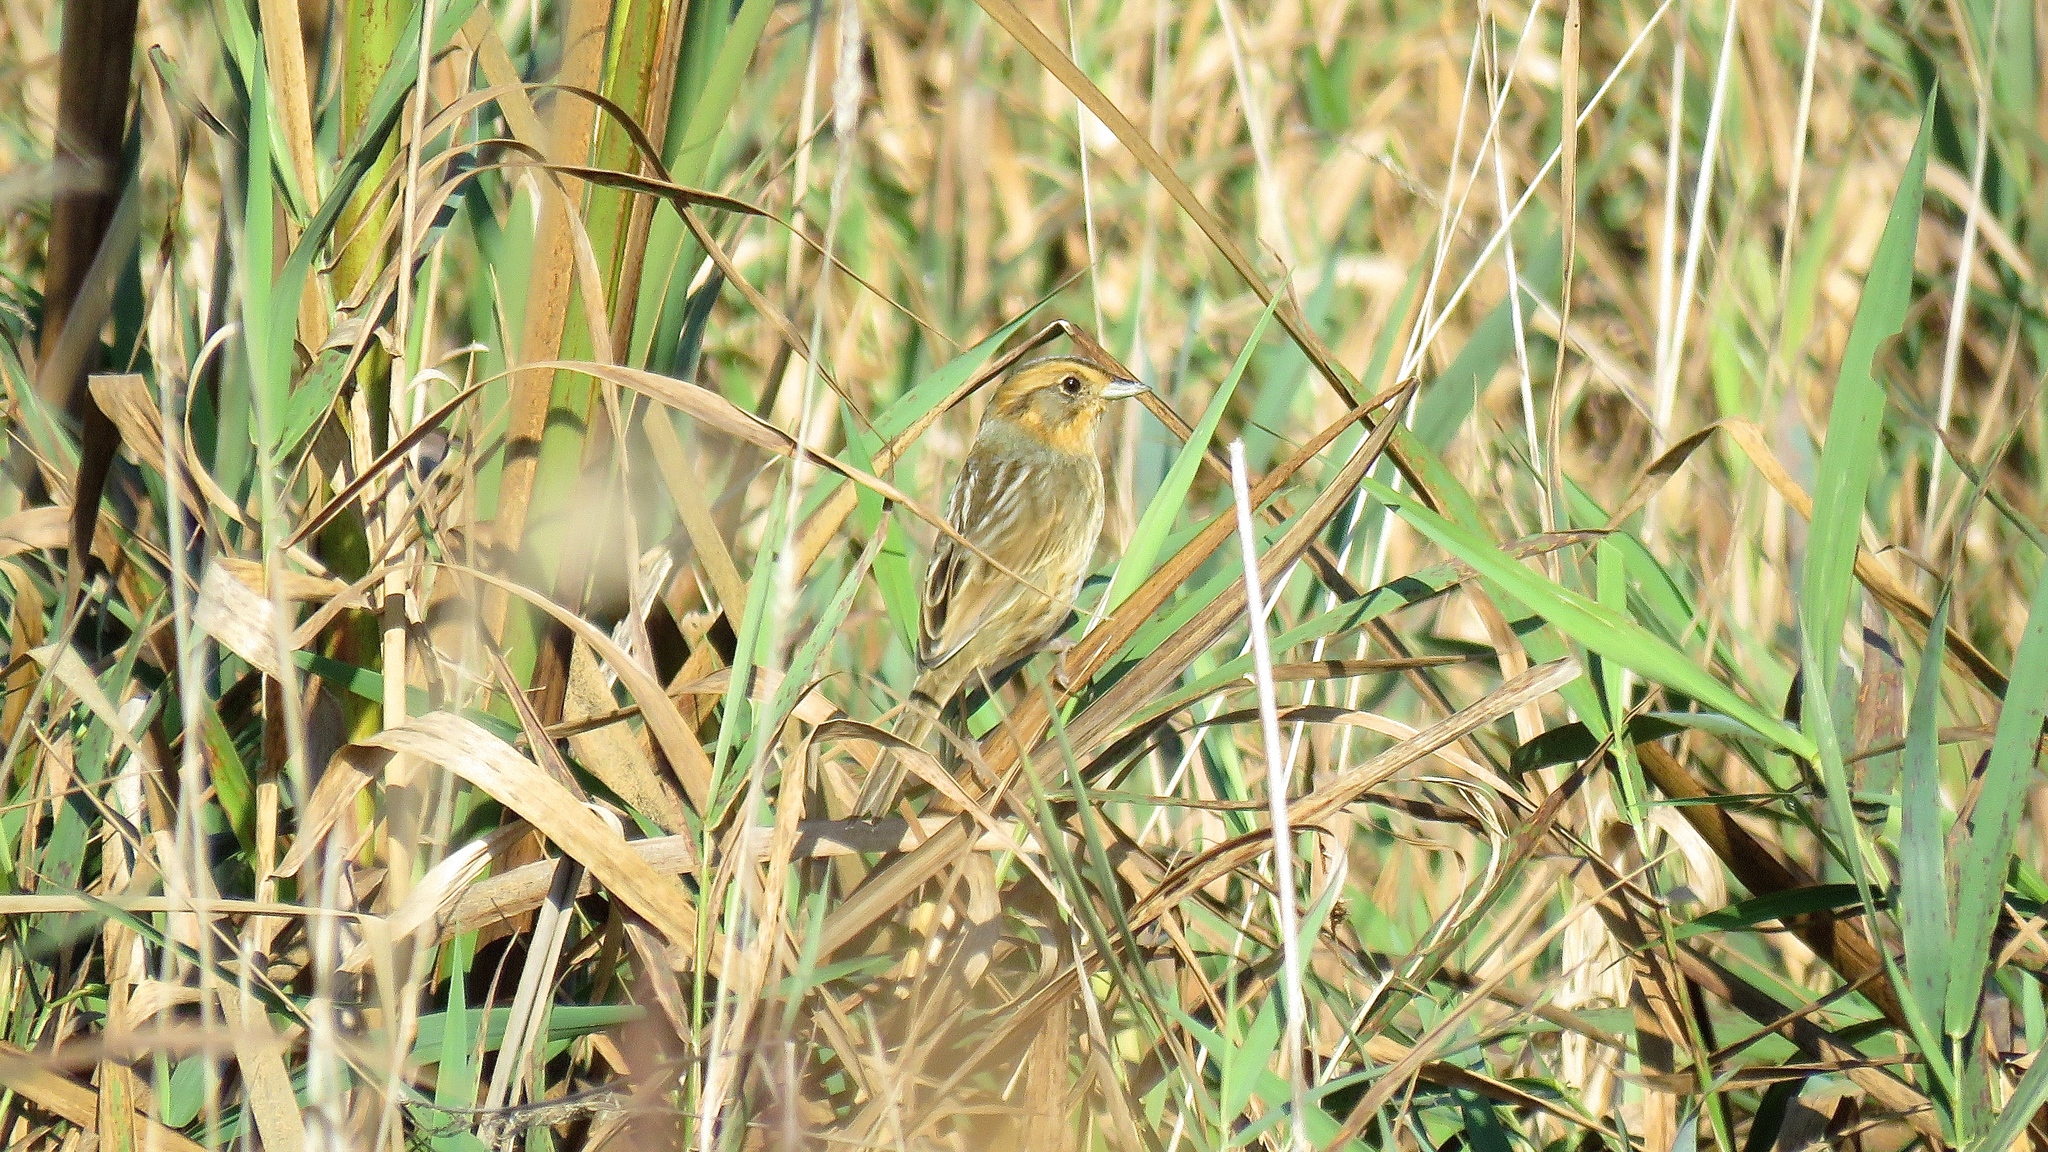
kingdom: Animalia
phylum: Chordata
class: Aves
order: Passeriformes
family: Passerellidae
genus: Ammospiza
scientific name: Ammospiza nelsoni
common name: Nelson's sparrow
